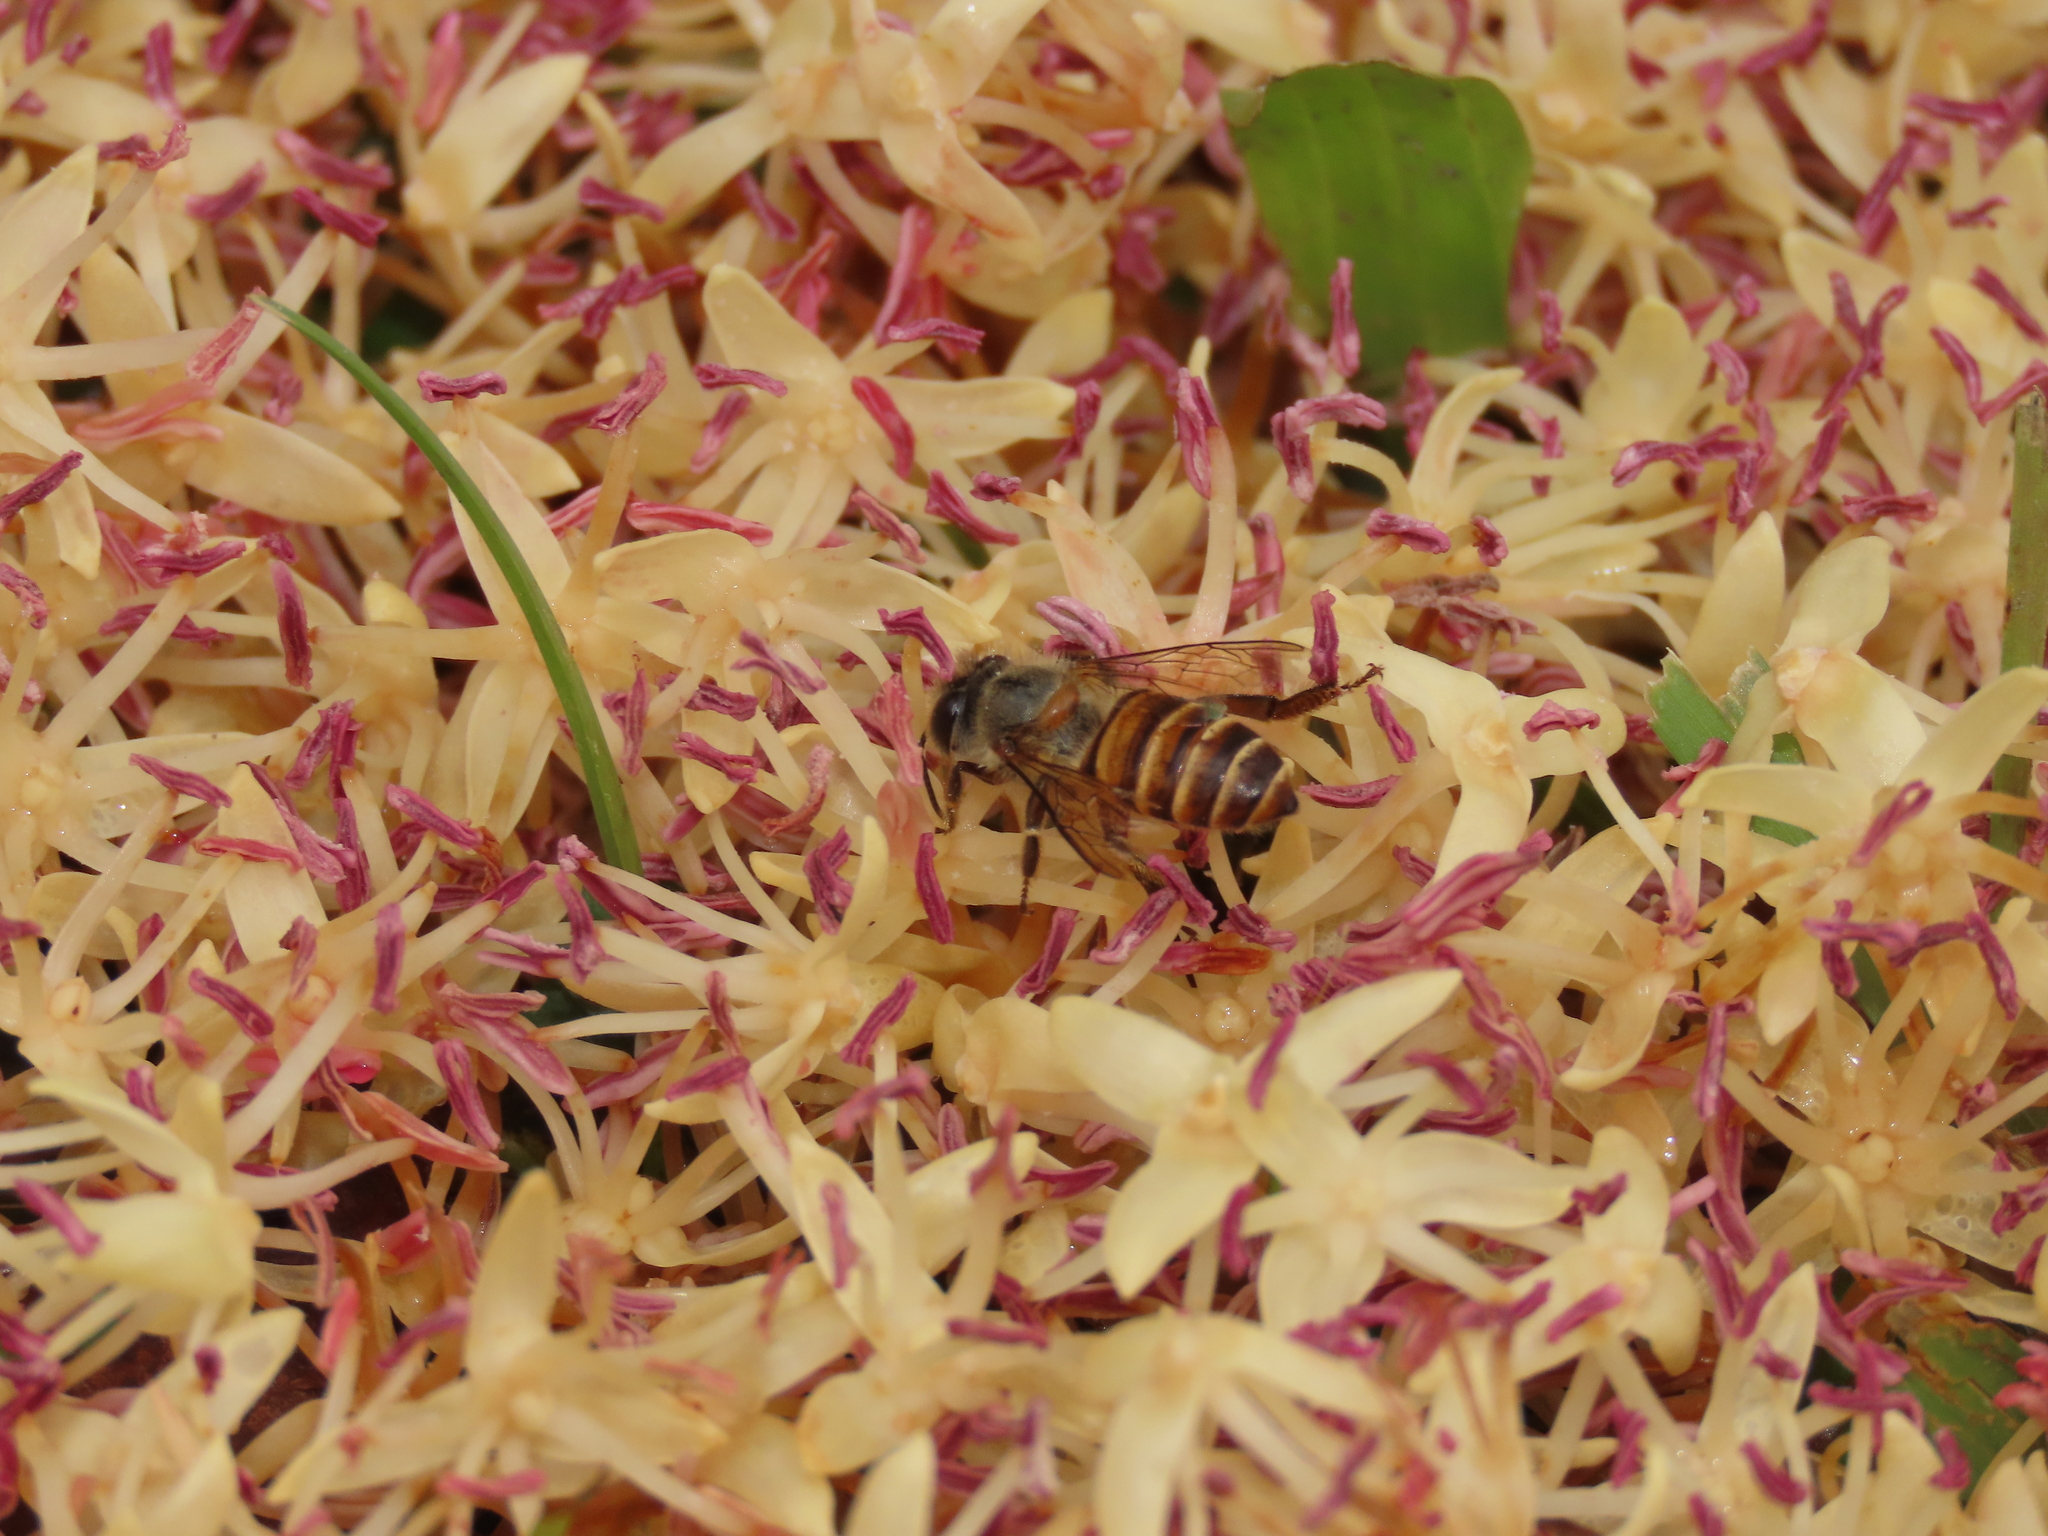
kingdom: Animalia
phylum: Arthropoda
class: Insecta
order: Hymenoptera
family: Apidae
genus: Apis
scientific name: Apis cerana
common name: Honey bee
